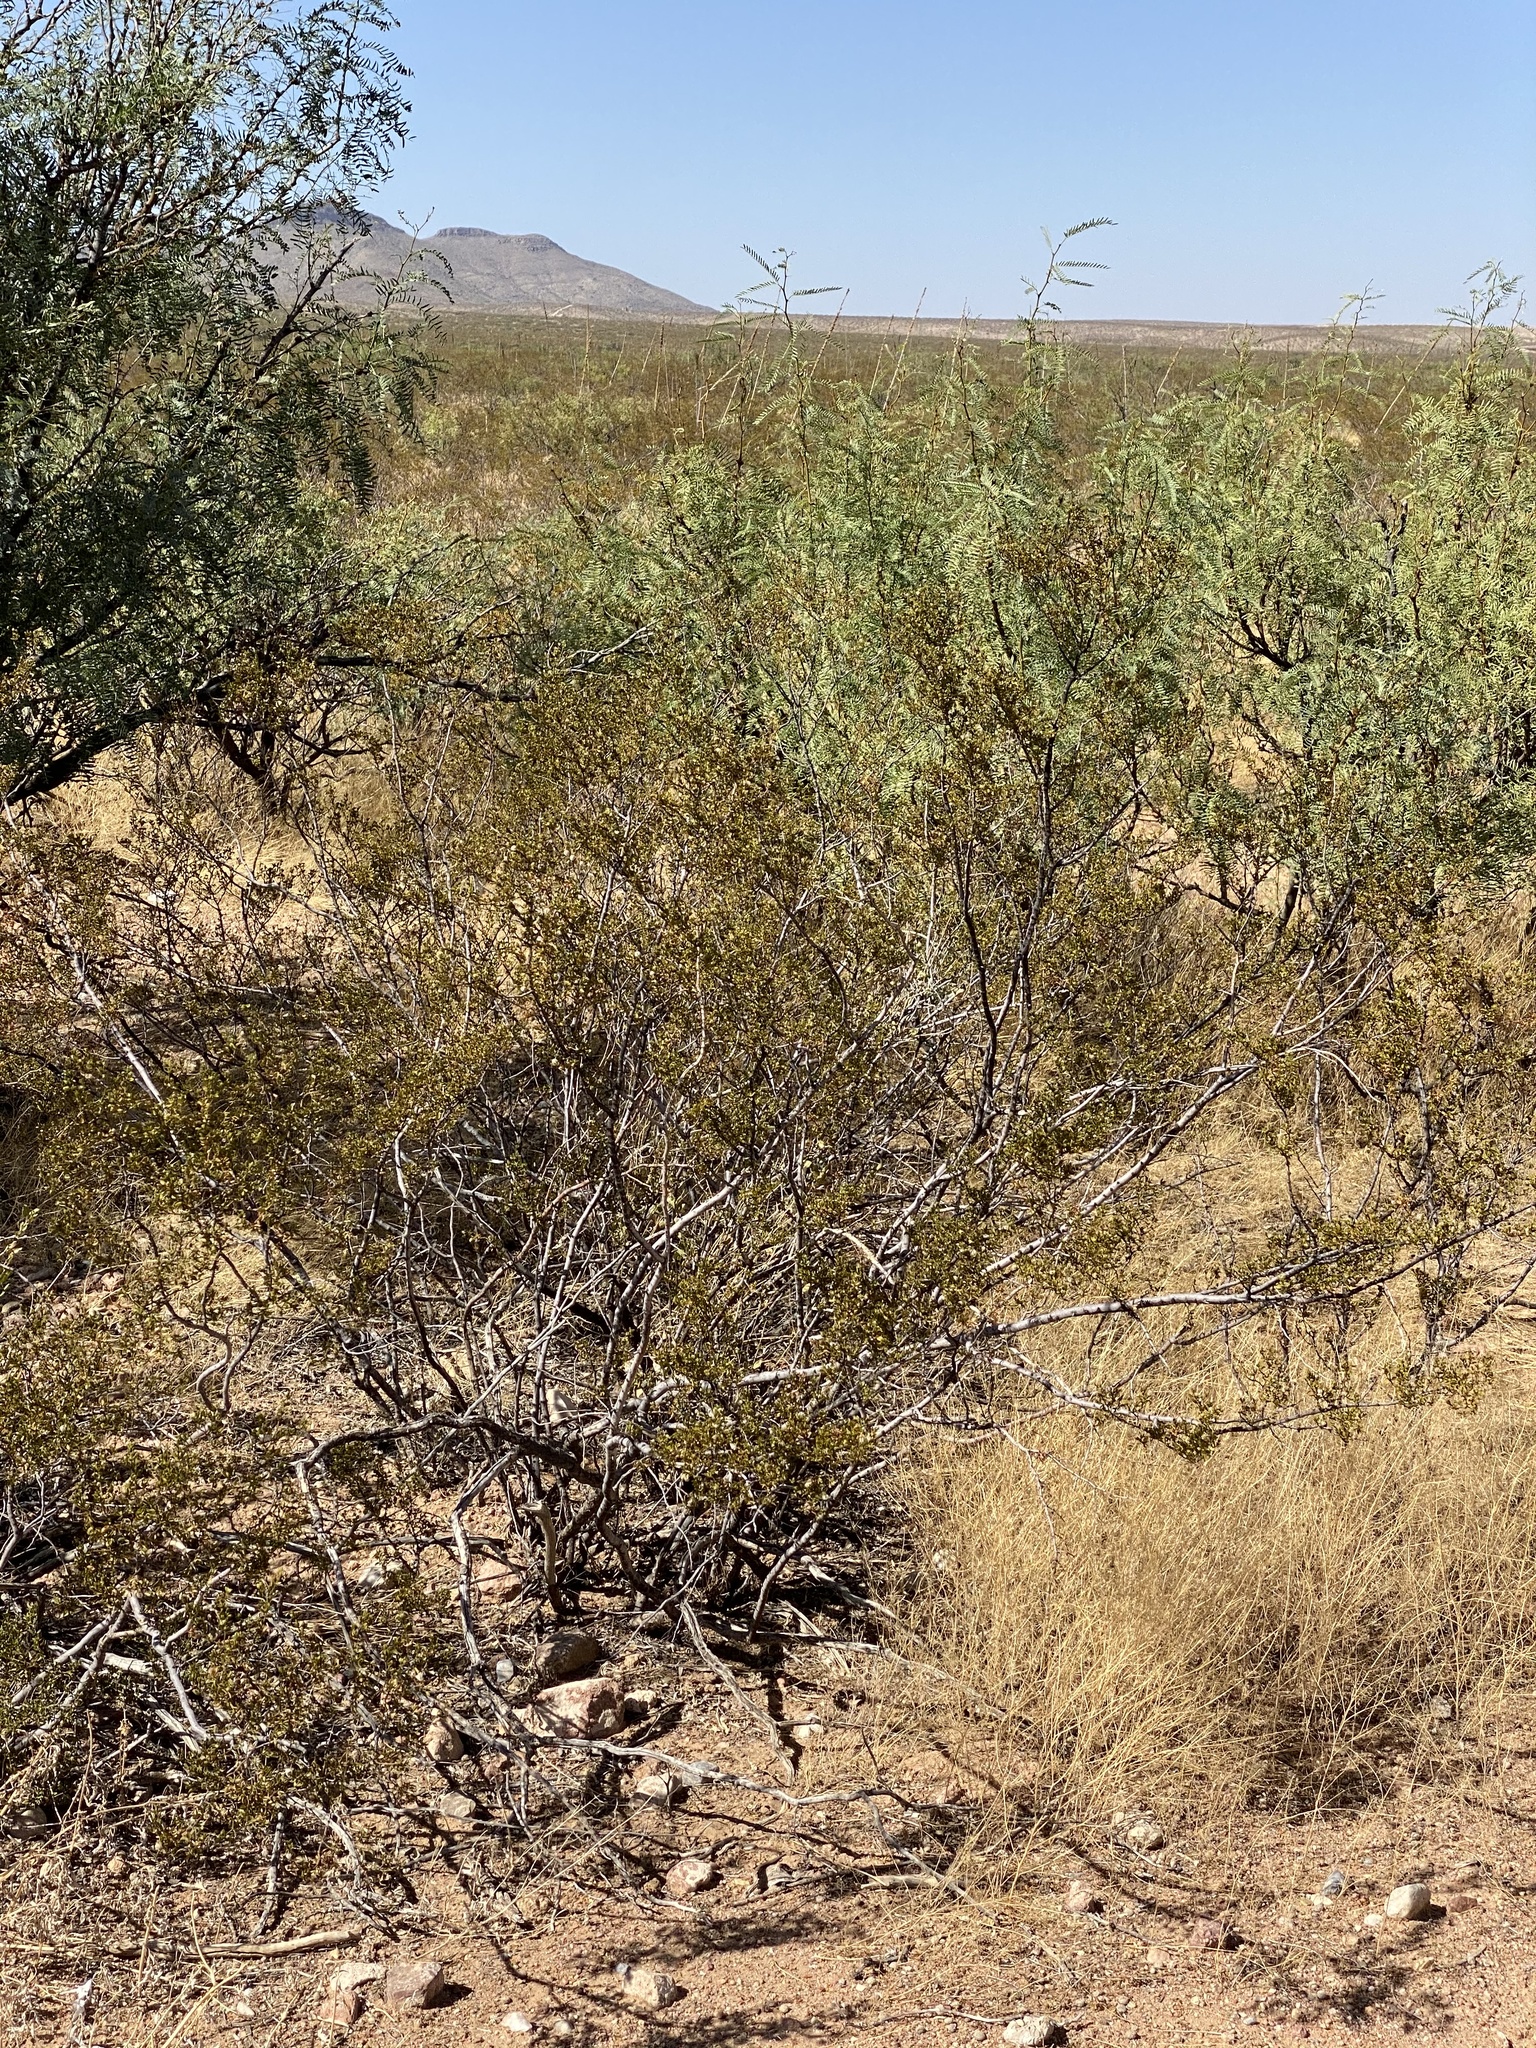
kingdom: Plantae
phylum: Tracheophyta
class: Magnoliopsida
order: Zygophyllales
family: Zygophyllaceae
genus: Larrea
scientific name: Larrea tridentata
